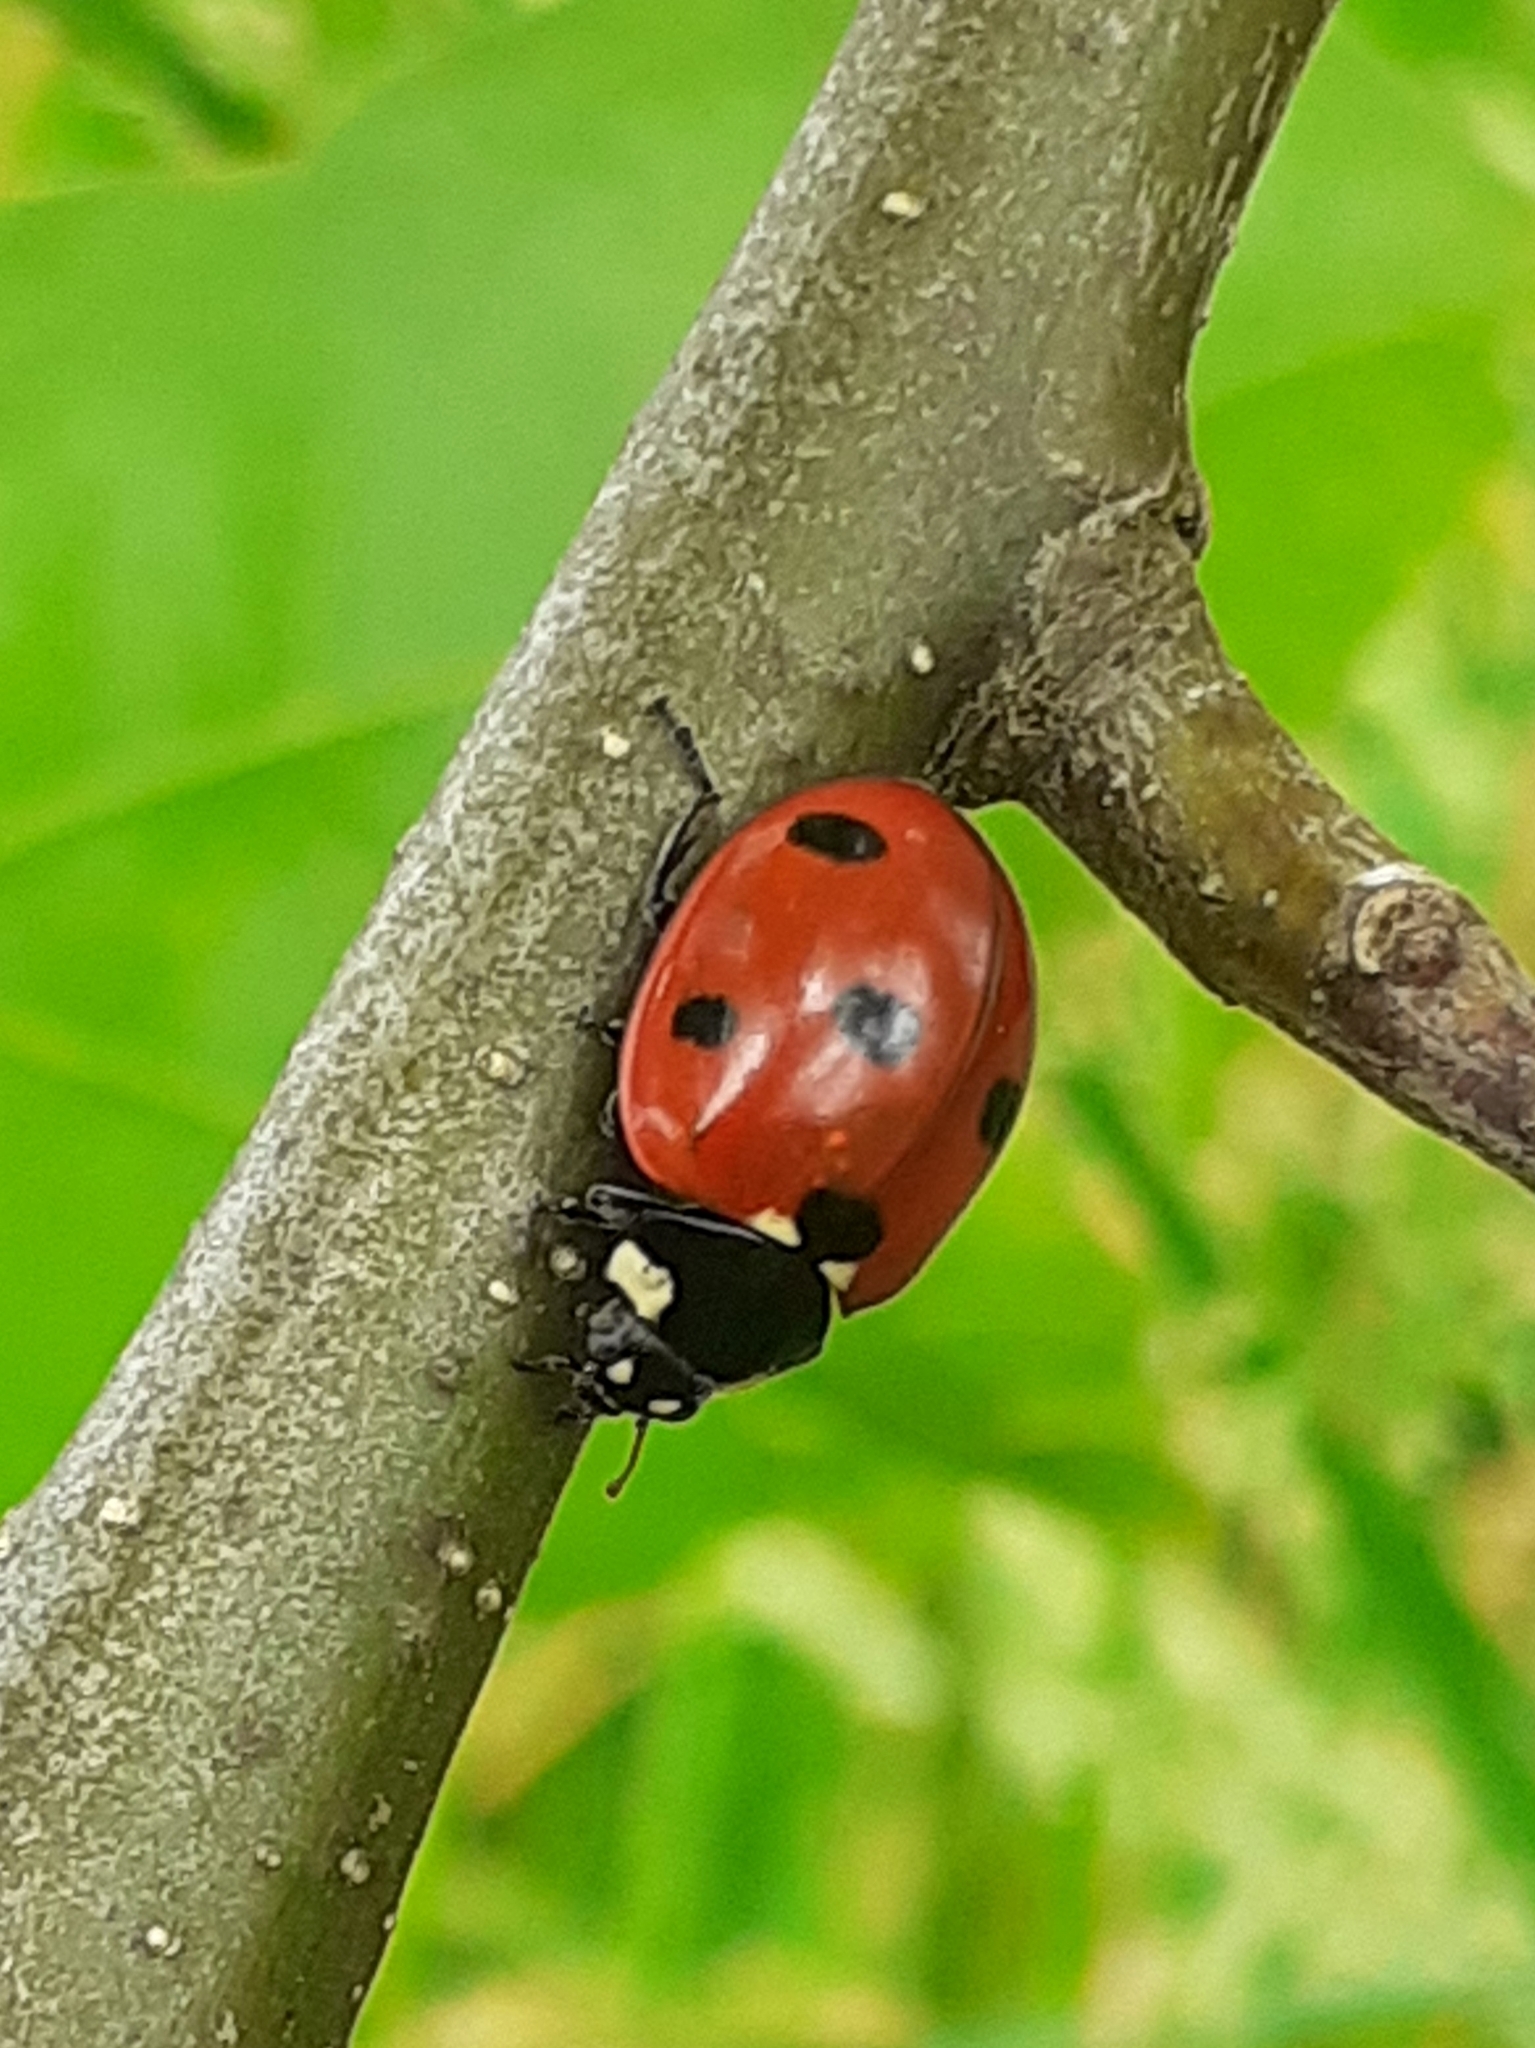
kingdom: Animalia
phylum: Arthropoda
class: Insecta
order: Coleoptera
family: Coccinellidae
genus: Coccinella
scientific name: Coccinella septempunctata
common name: Sevenspotted lady beetle
